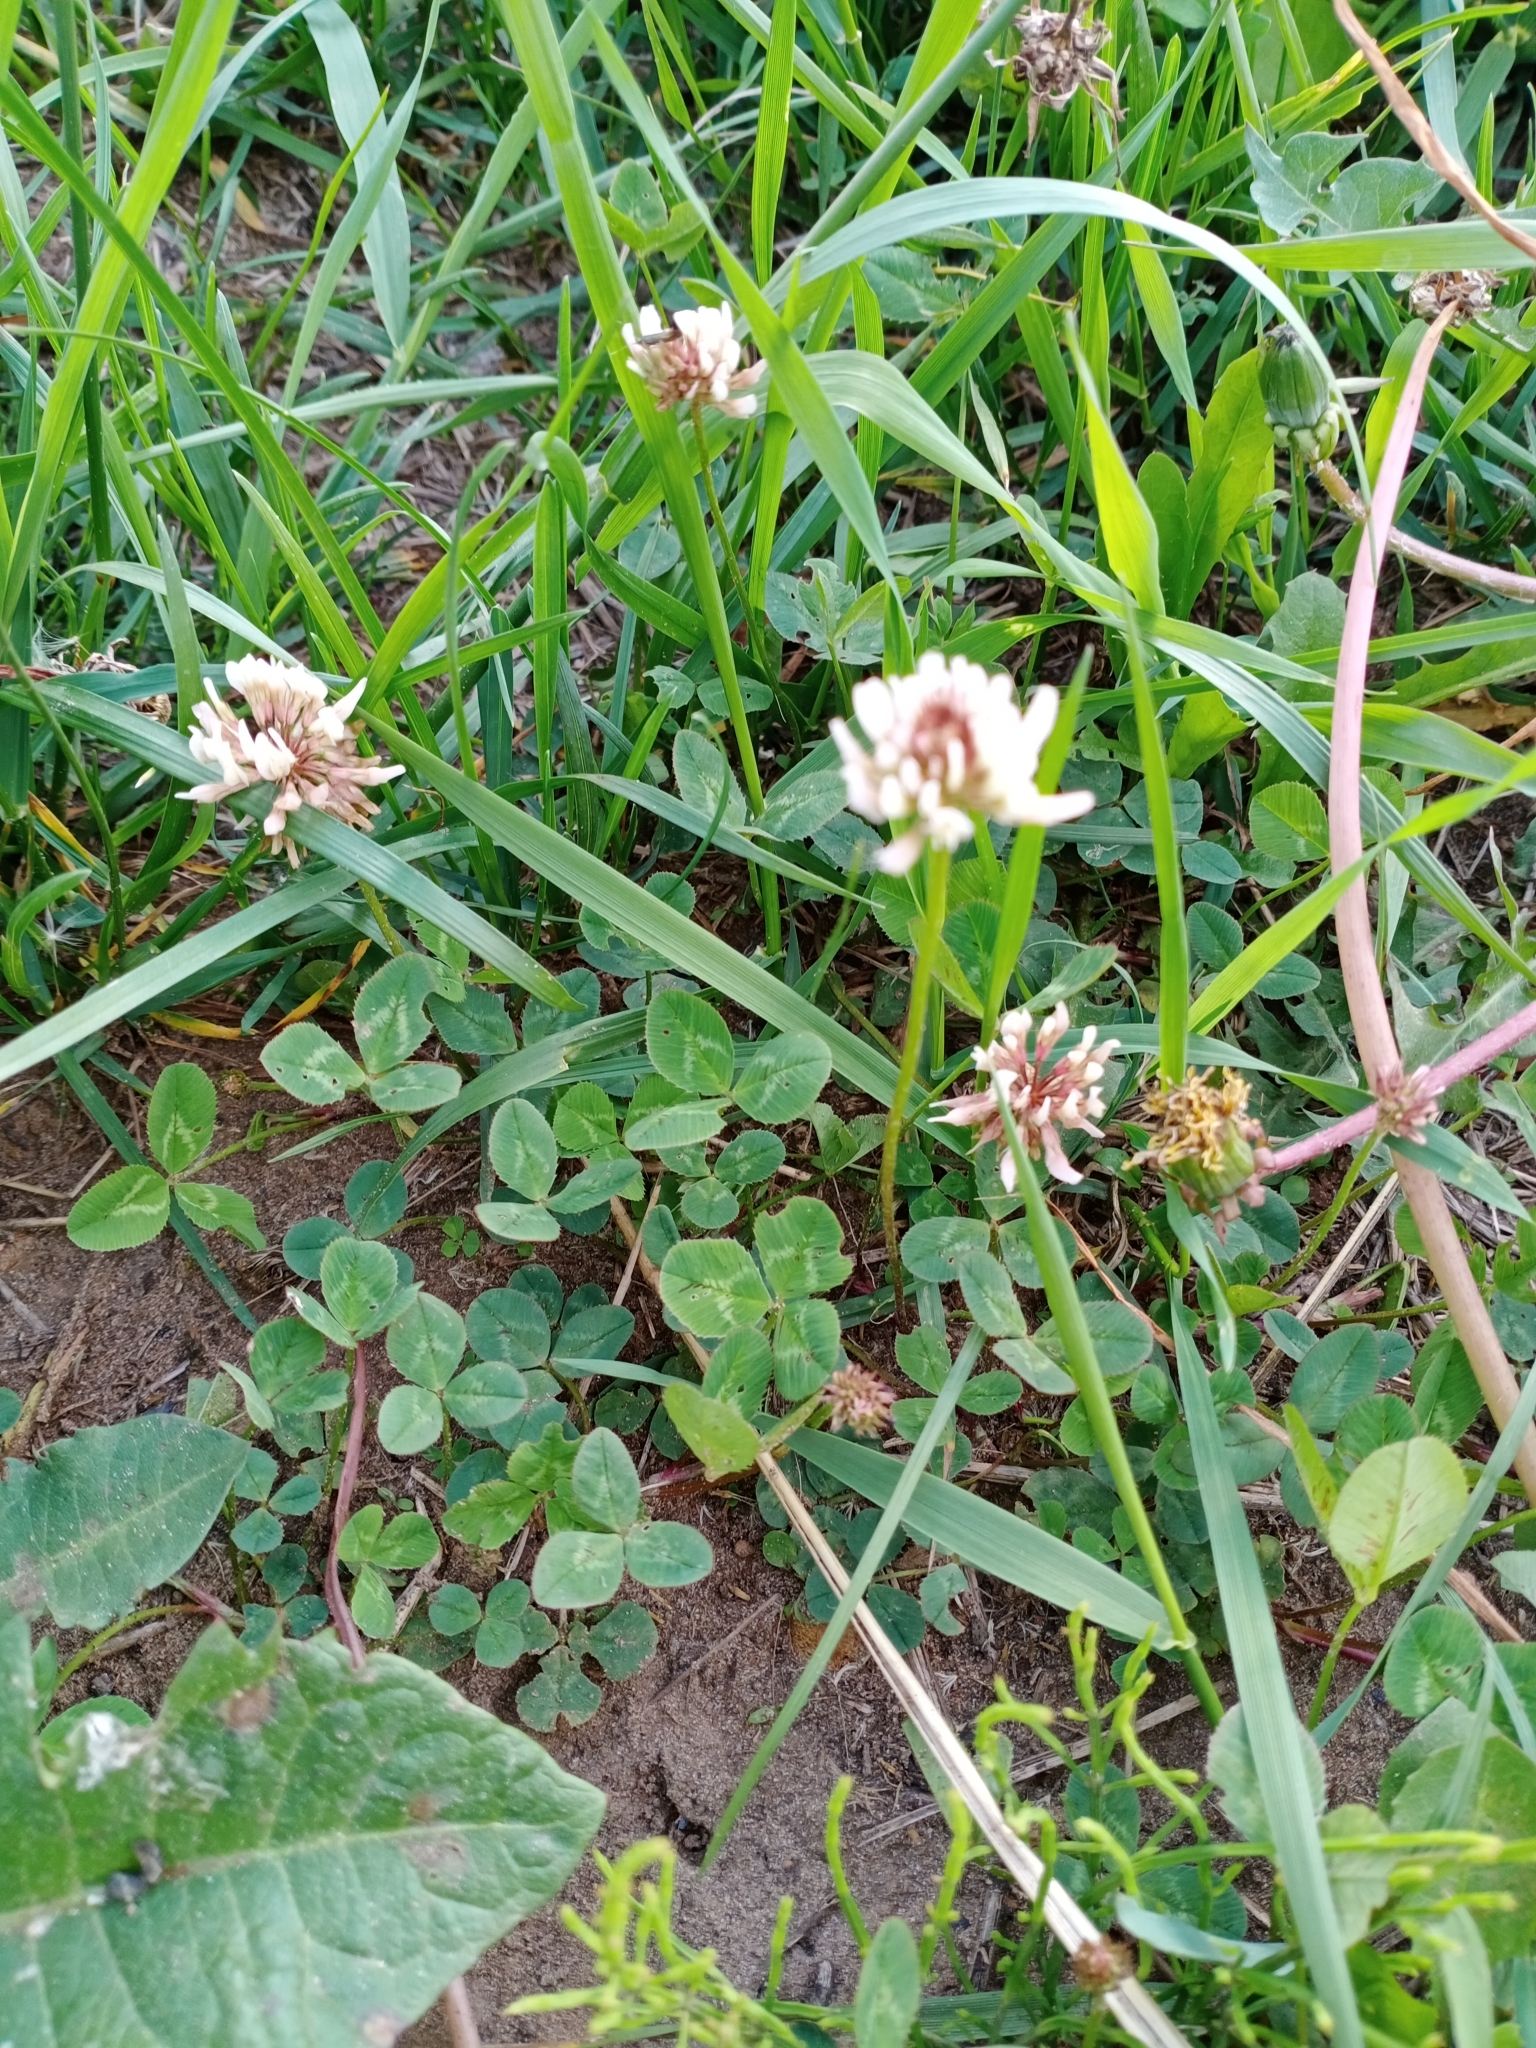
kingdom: Plantae
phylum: Tracheophyta
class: Magnoliopsida
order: Fabales
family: Fabaceae
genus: Trifolium
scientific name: Trifolium repens
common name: White clover
